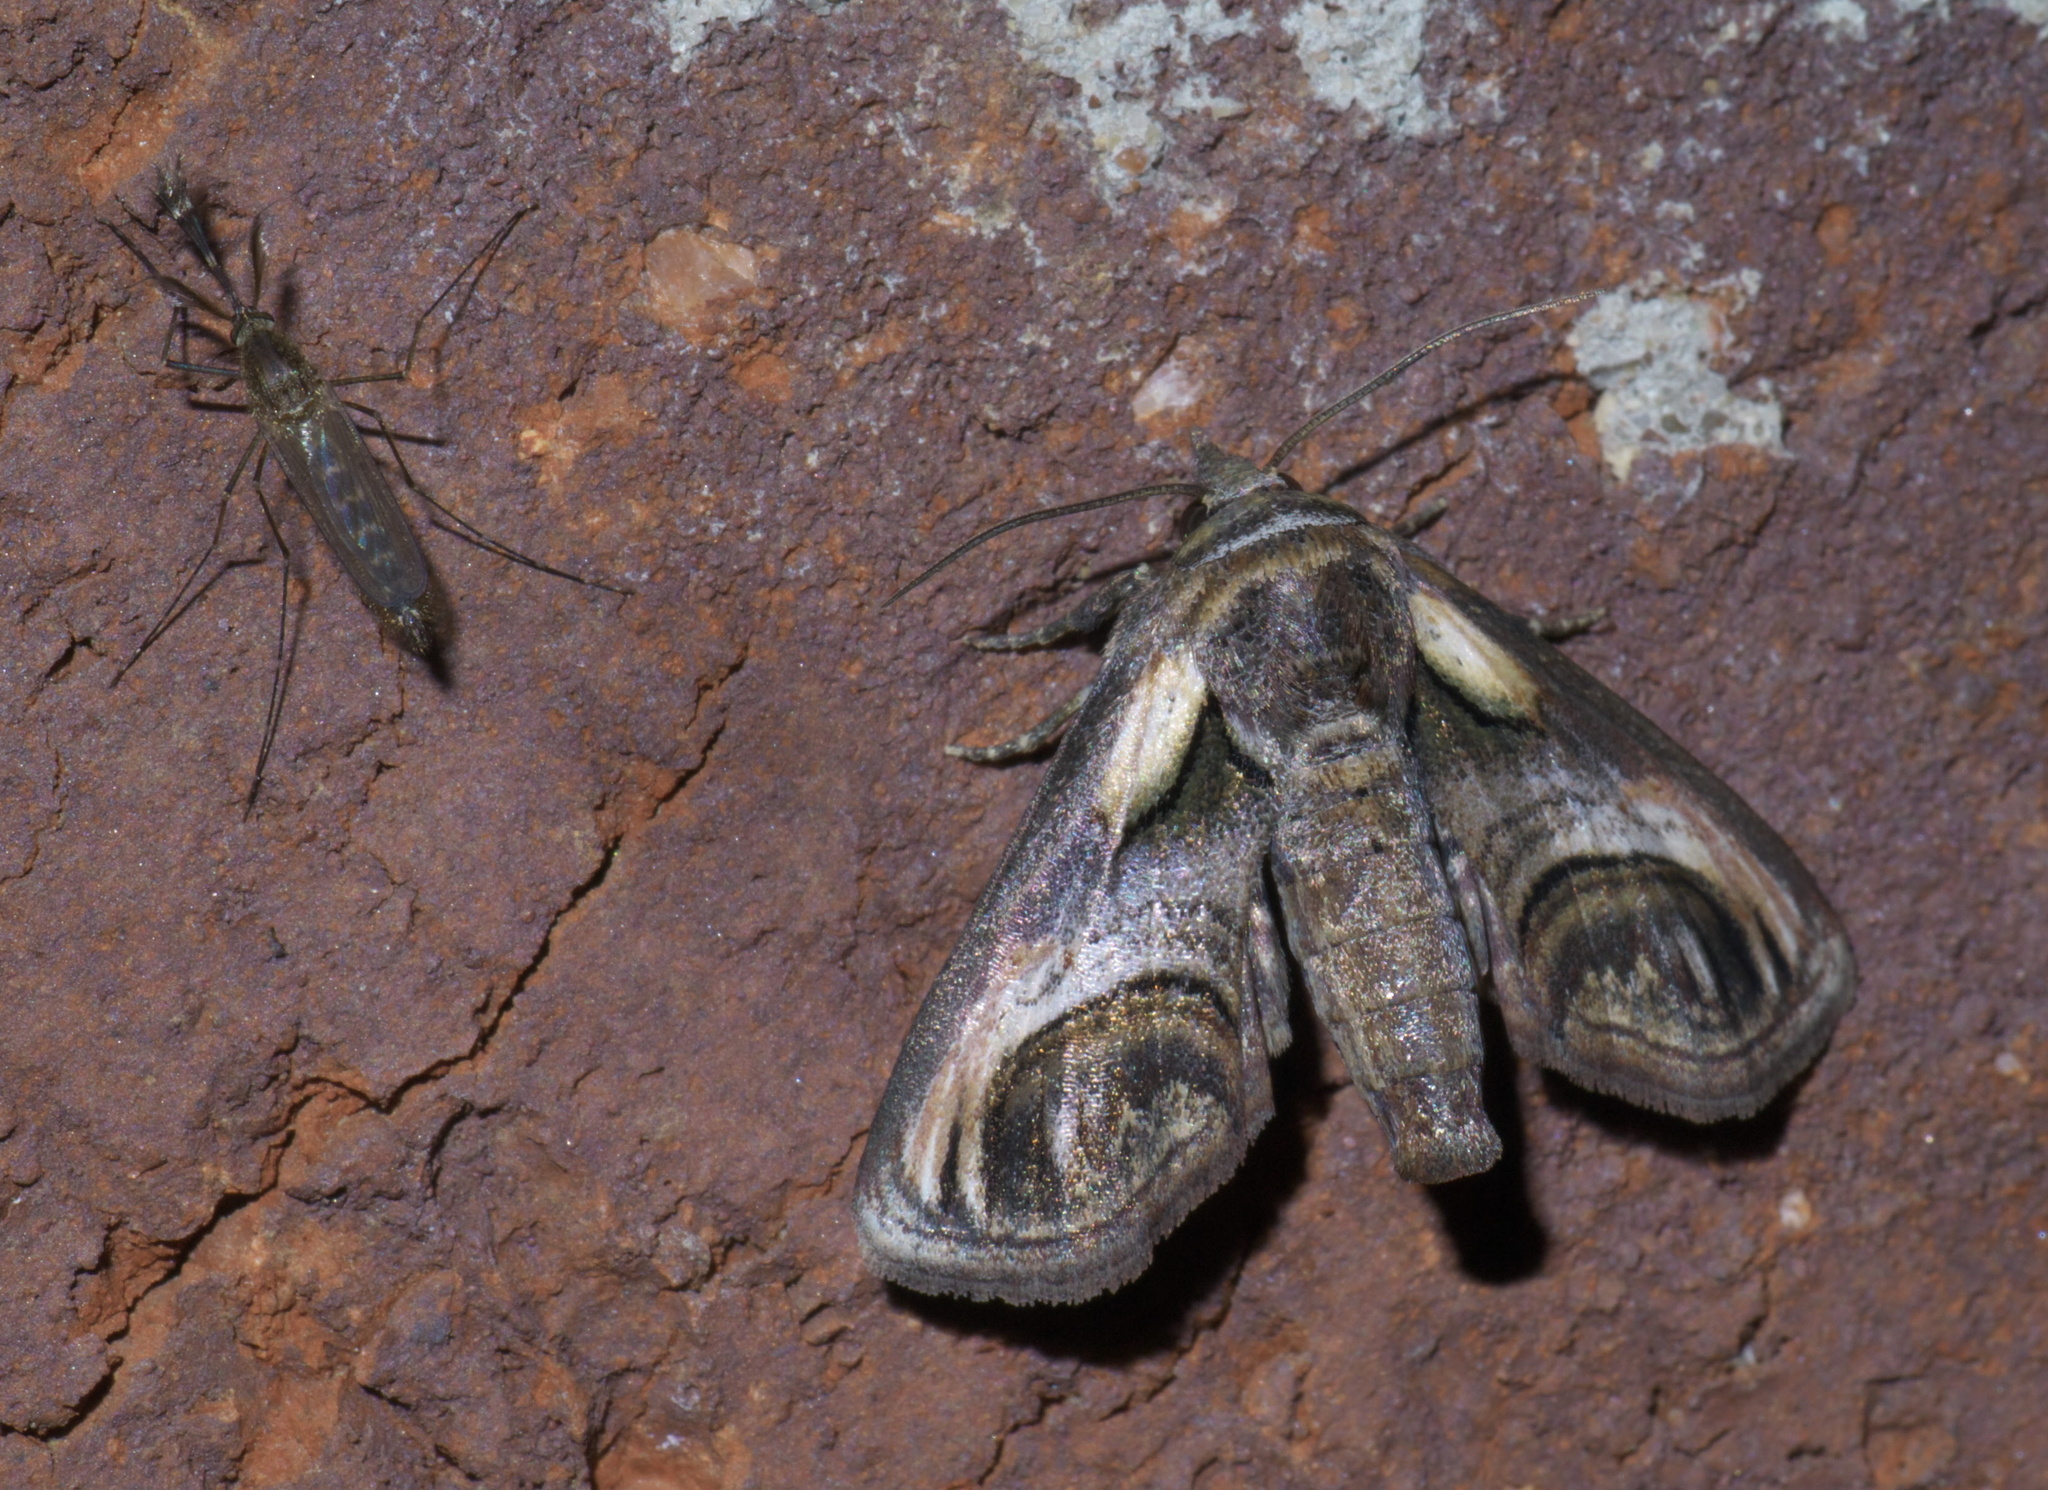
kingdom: Animalia
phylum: Arthropoda
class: Insecta
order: Lepidoptera
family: Euteliidae
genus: Paectes
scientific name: Paectes oculatrix
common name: Eyed paectes moth
